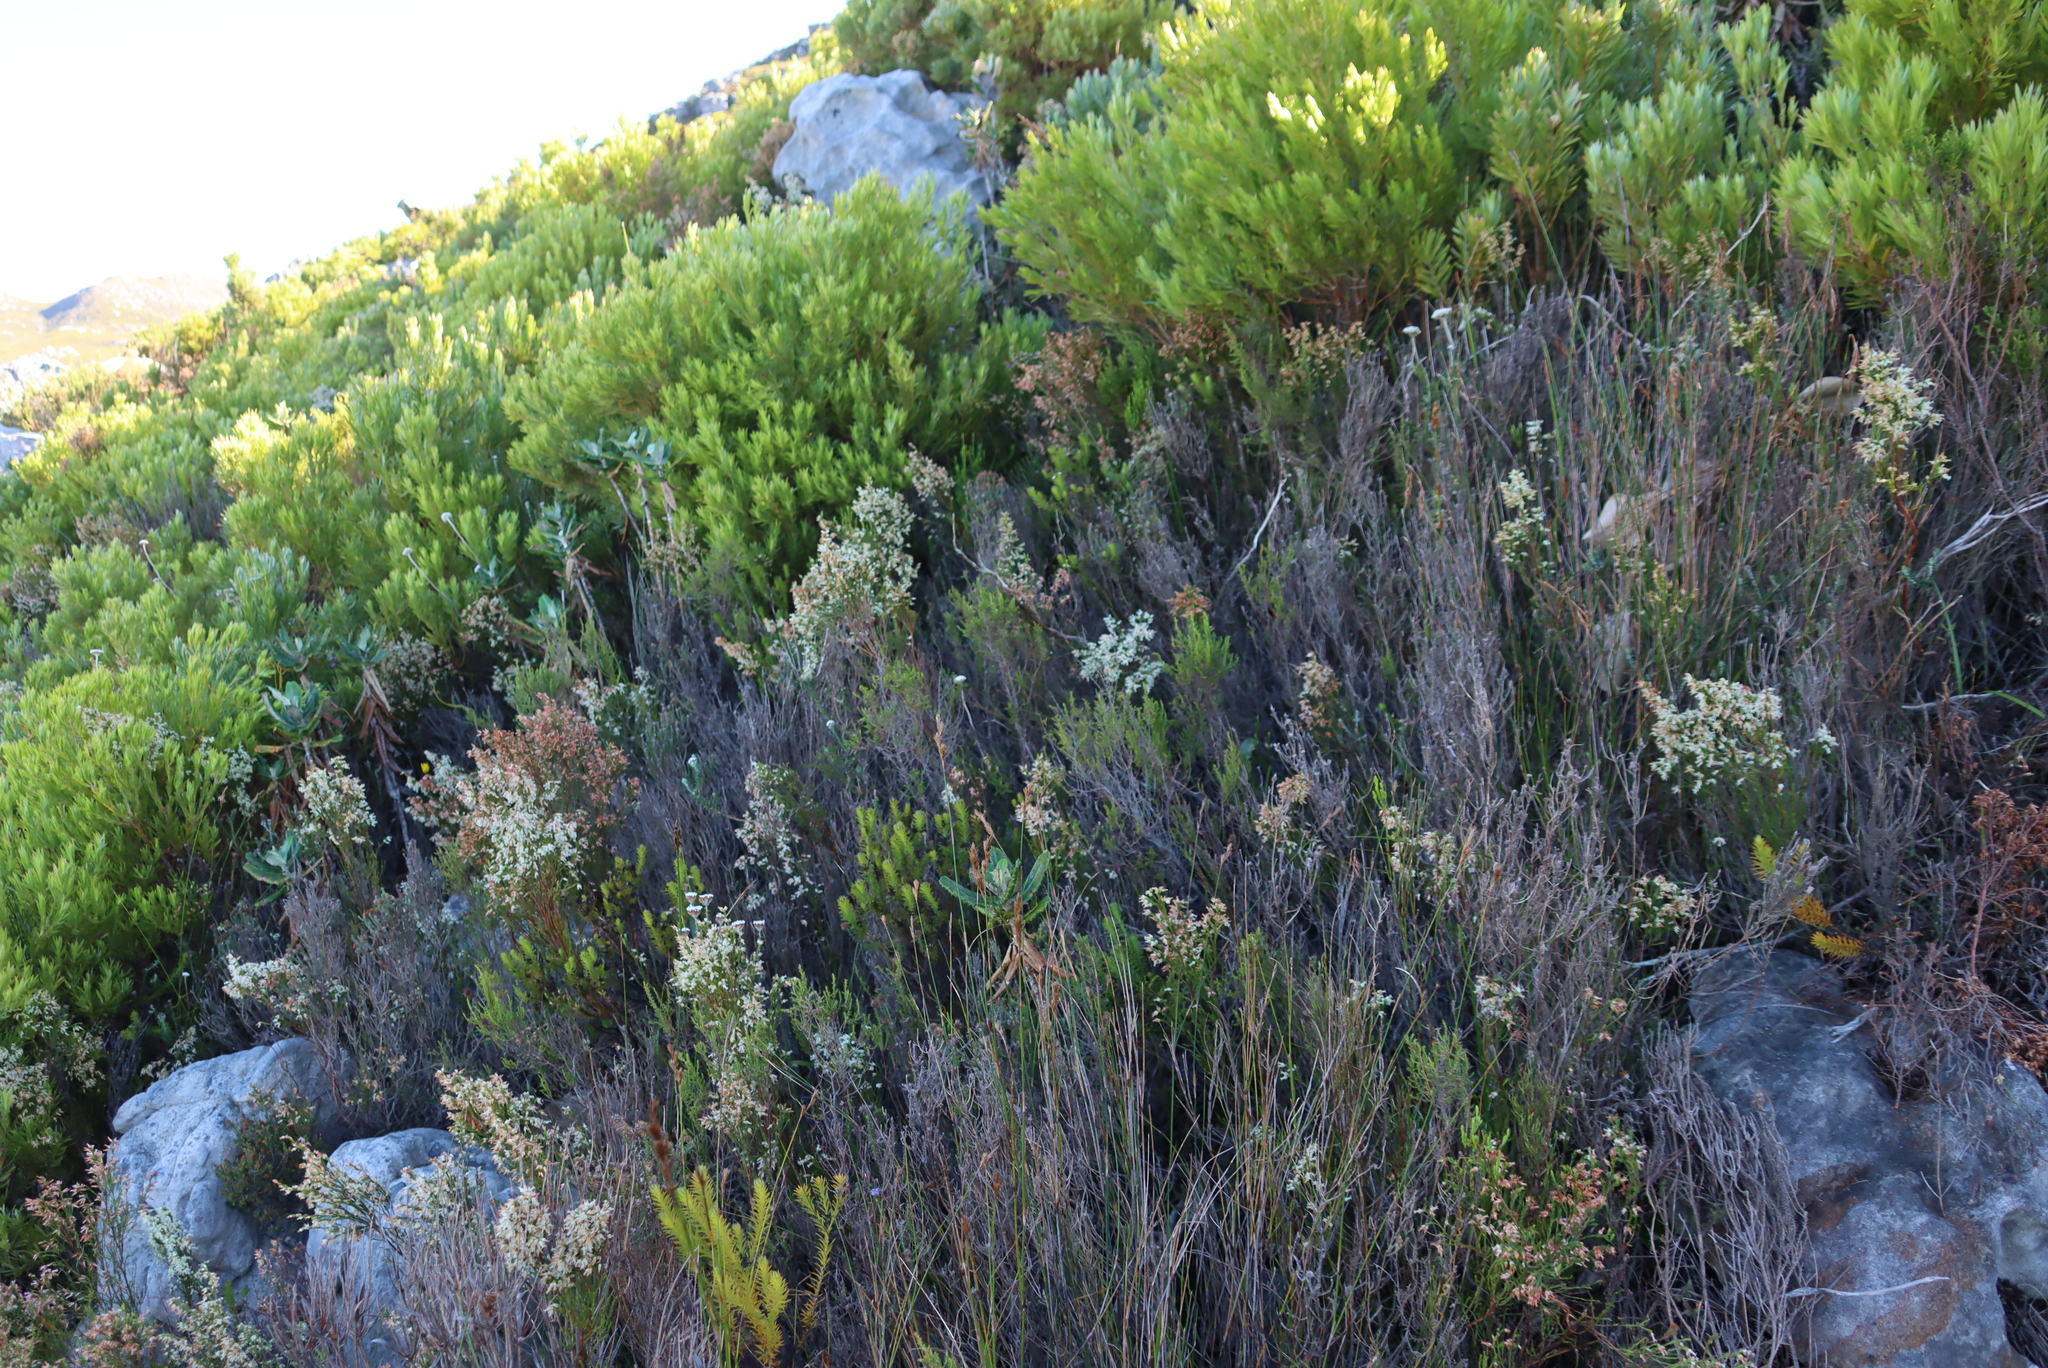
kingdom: Plantae
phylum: Tracheophyta
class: Magnoliopsida
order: Ericales
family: Ericaceae
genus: Erica
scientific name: Erica lutea
